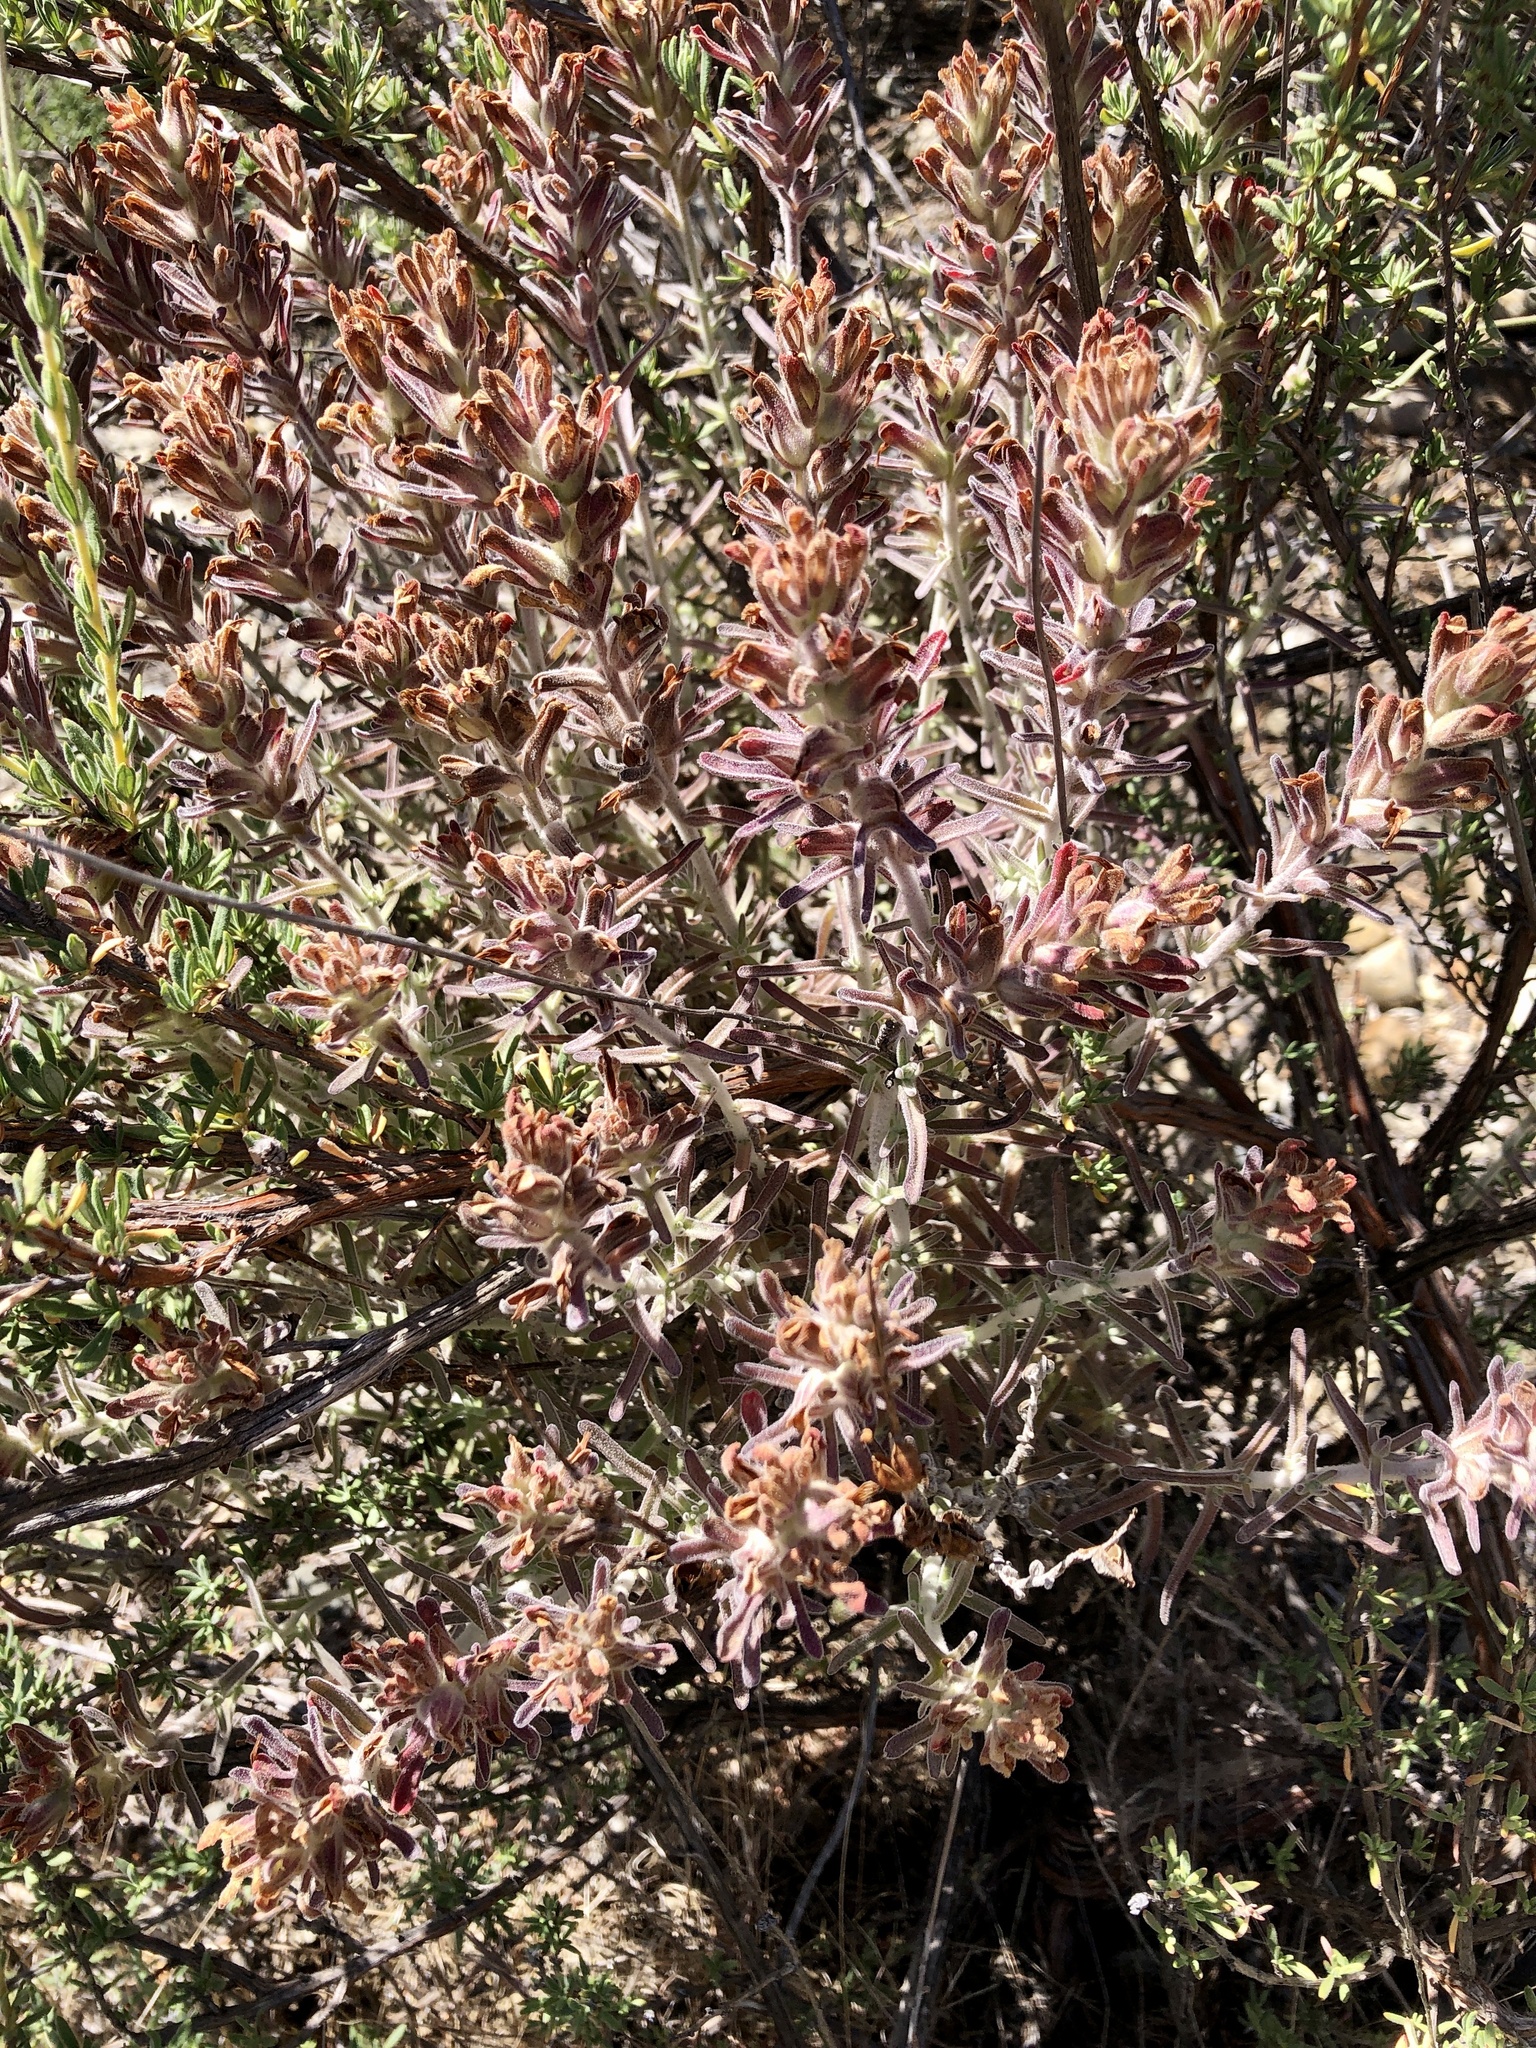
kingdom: Plantae
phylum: Tracheophyta
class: Magnoliopsida
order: Lamiales
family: Orobanchaceae
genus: Castilleja
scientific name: Castilleja foliolosa
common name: Woolly indian paintbrush
